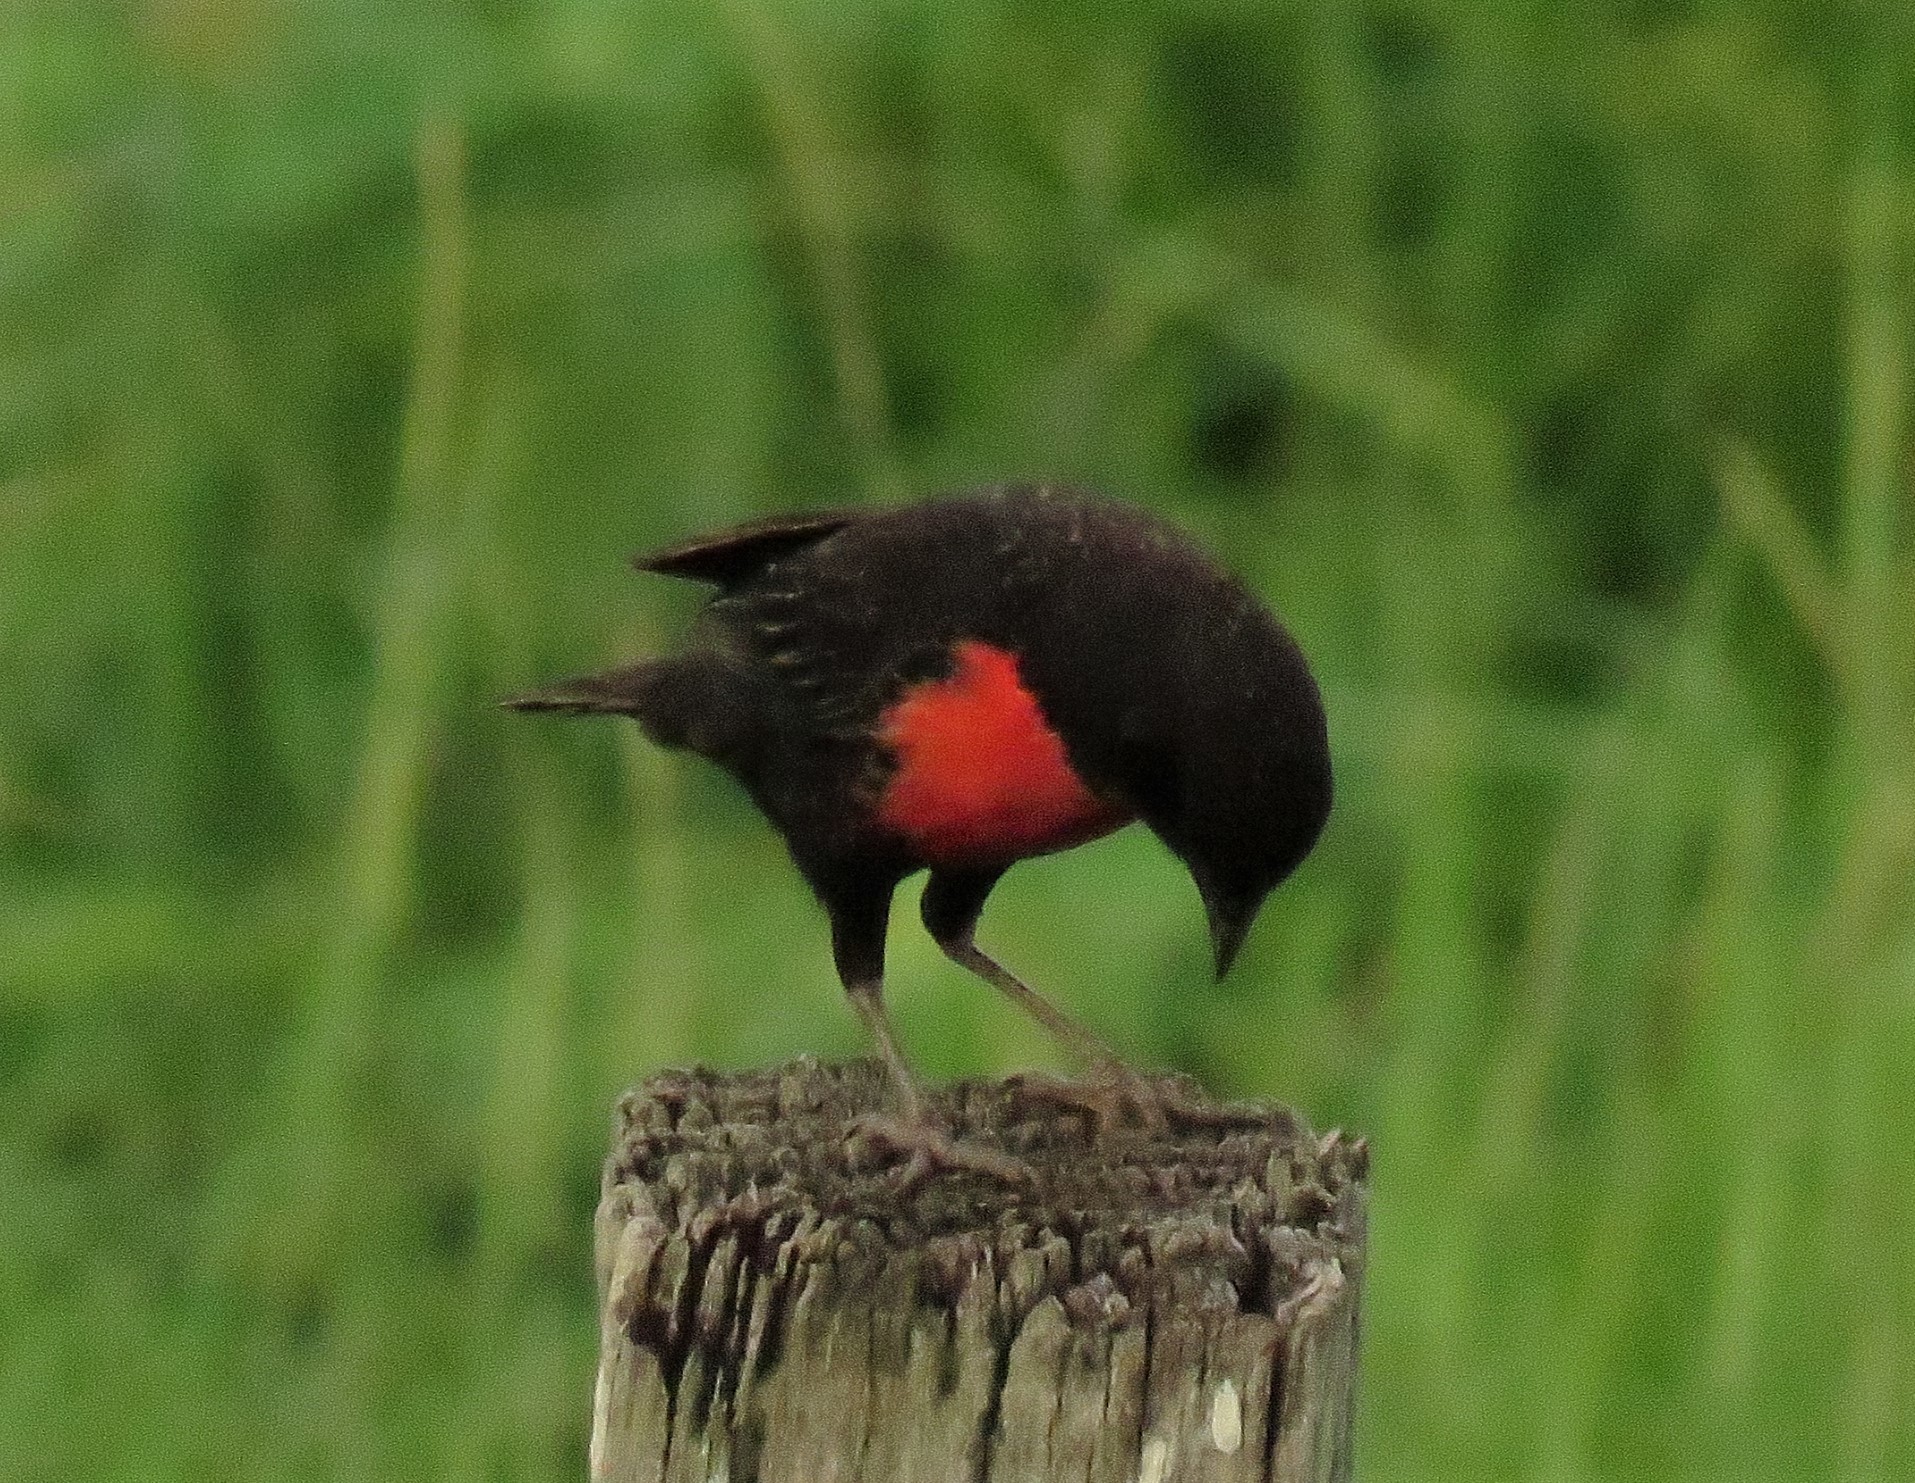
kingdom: Animalia
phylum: Chordata
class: Aves
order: Passeriformes
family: Icteridae
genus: Sturnella
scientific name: Sturnella militaris
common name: Red-breasted blackbird
